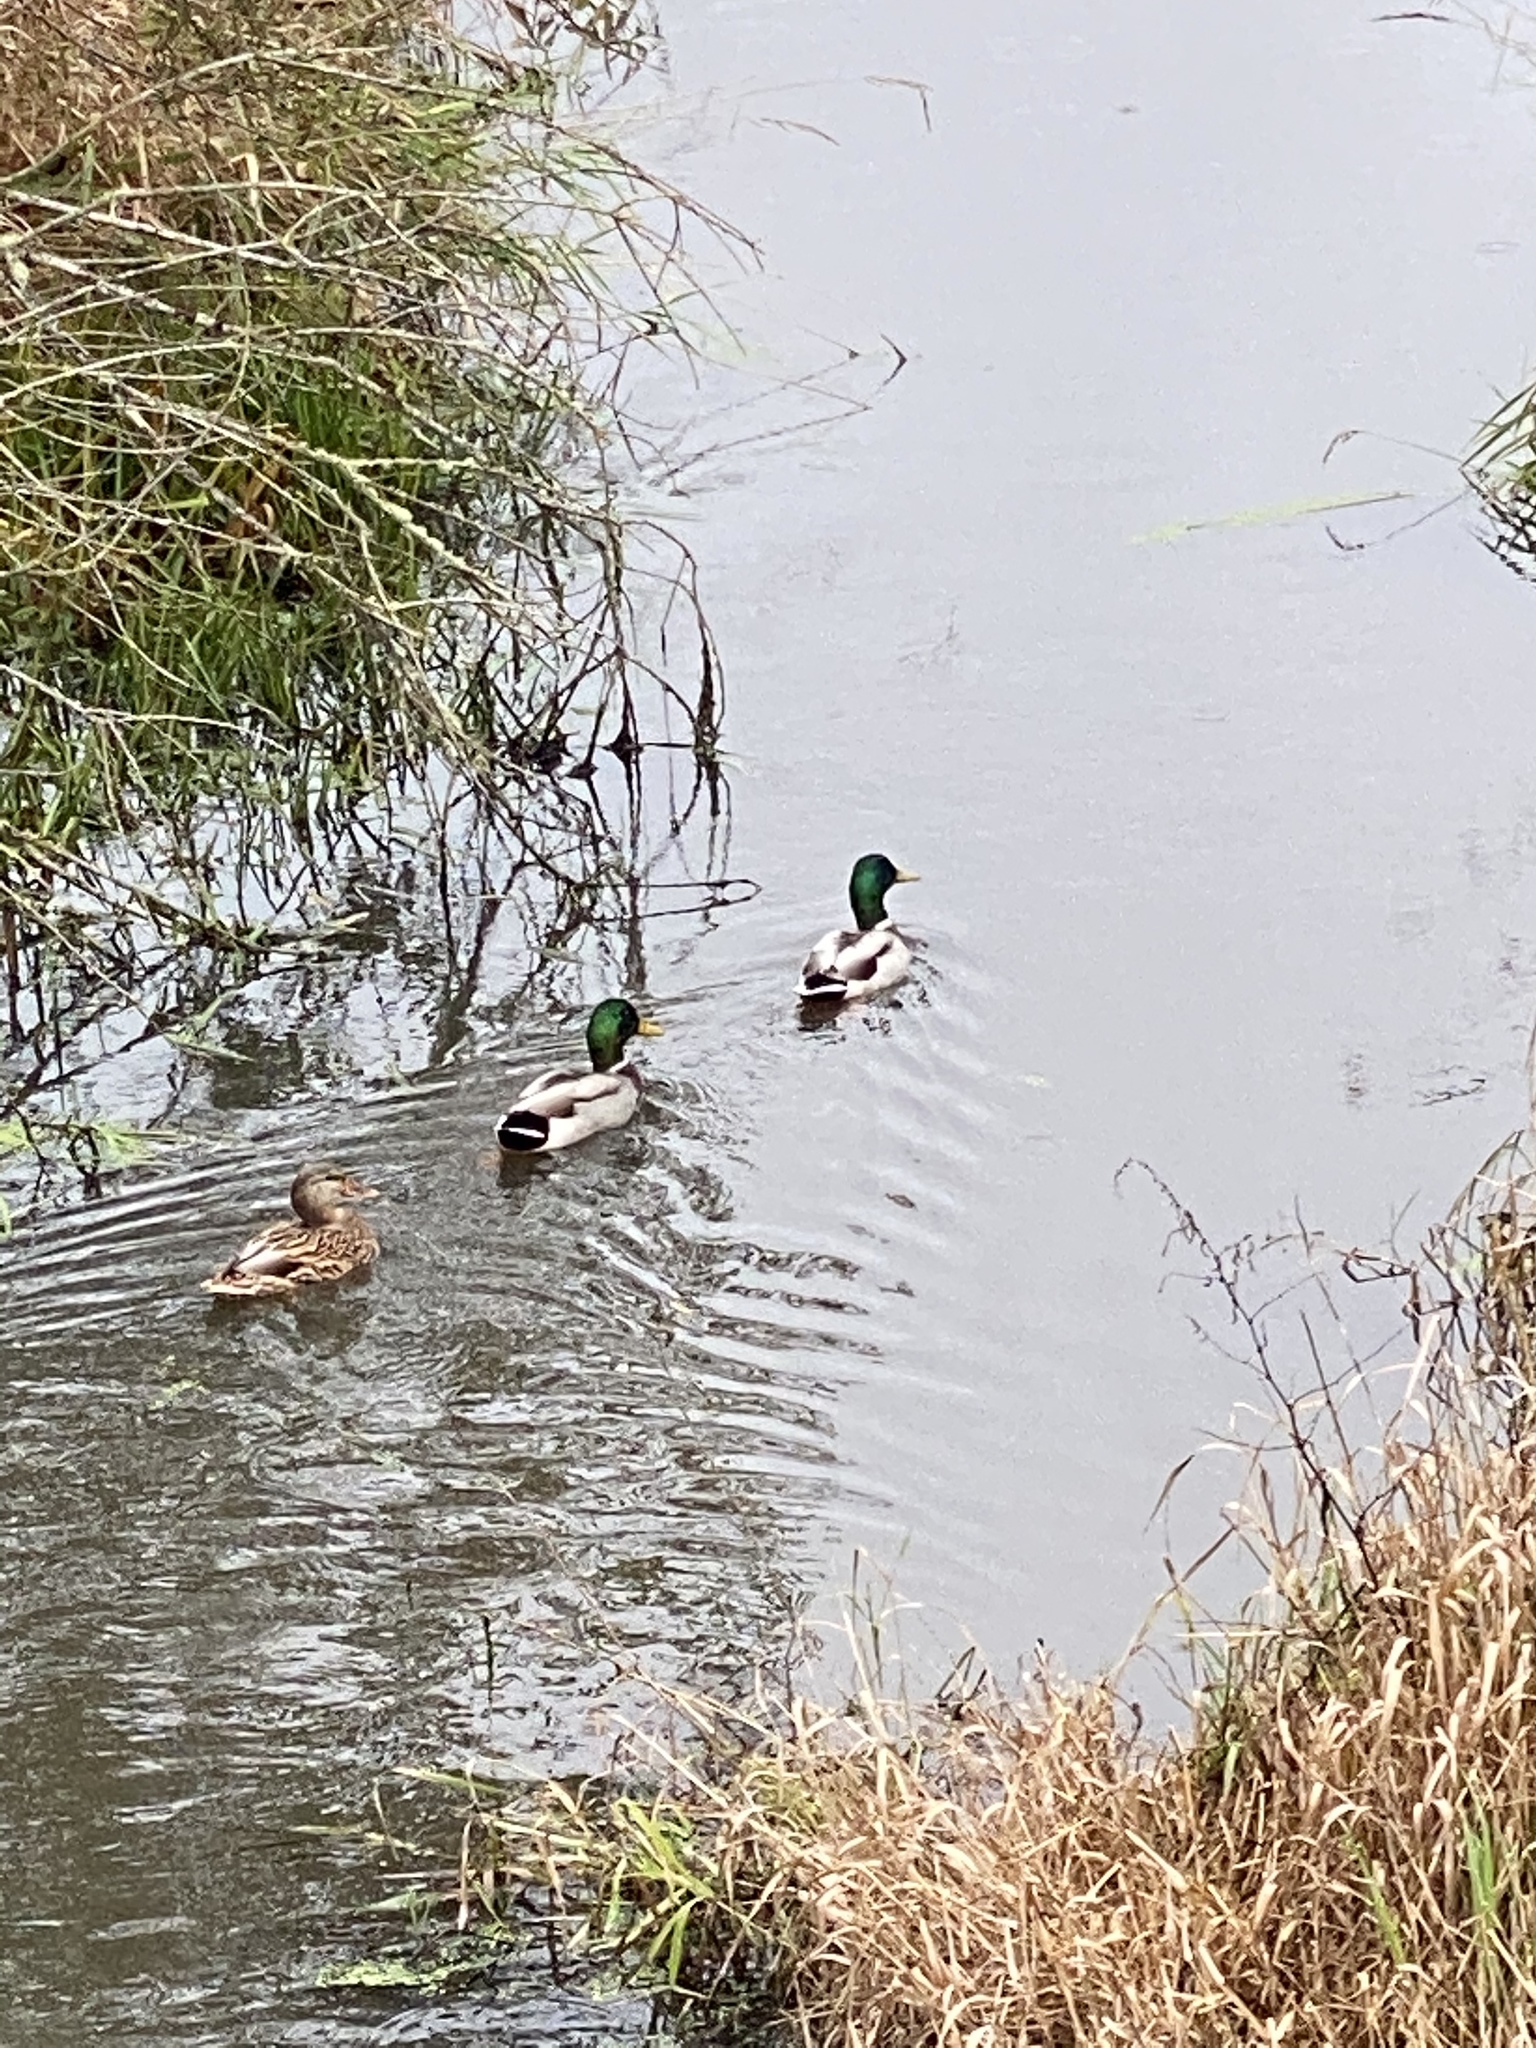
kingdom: Animalia
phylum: Chordata
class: Aves
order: Anseriformes
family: Anatidae
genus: Anas
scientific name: Anas platyrhynchos
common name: Mallard
